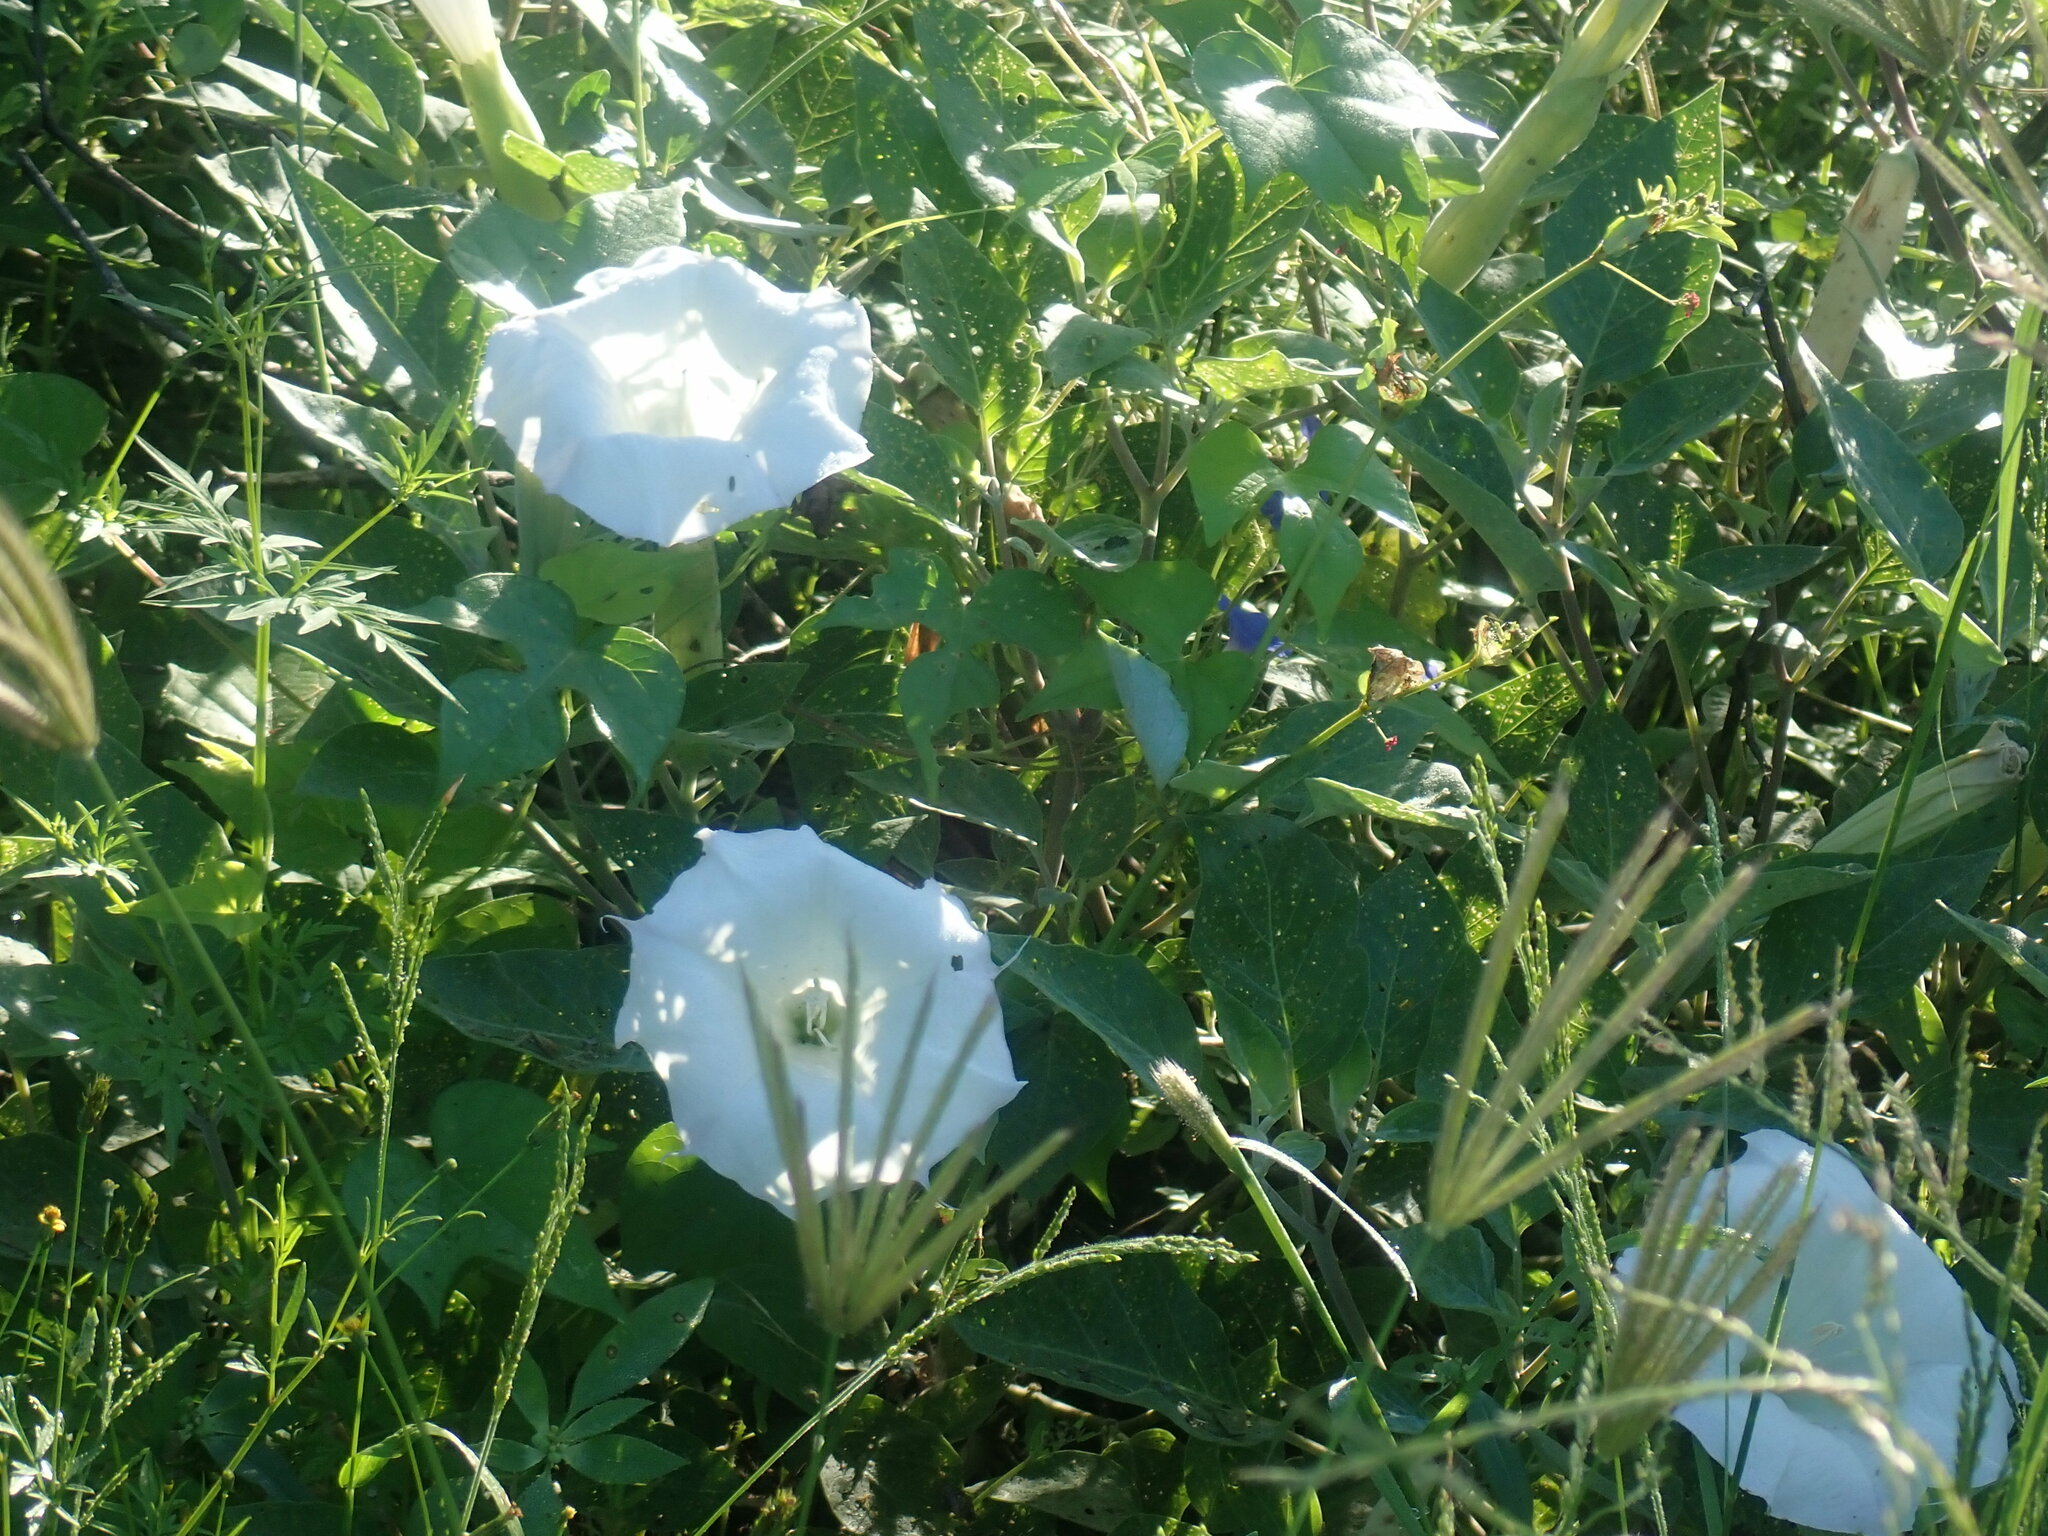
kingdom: Plantae
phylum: Tracheophyta
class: Magnoliopsida
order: Solanales
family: Solanaceae
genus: Datura
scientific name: Datura wrightii
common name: Sacred thorn-apple
